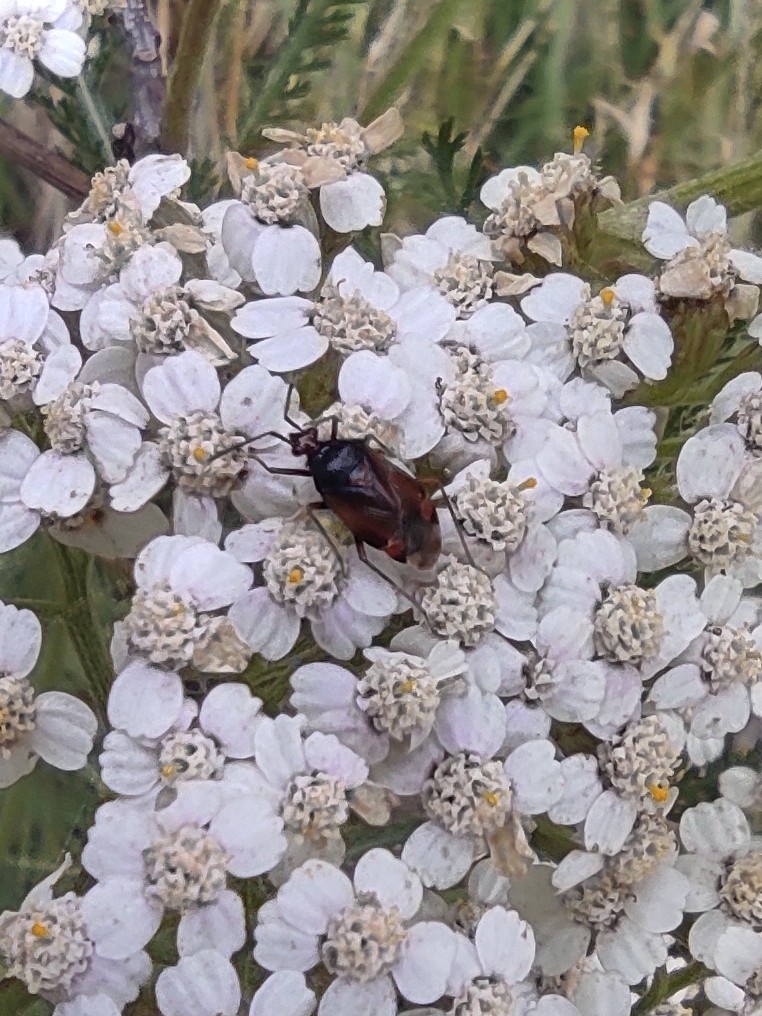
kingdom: Animalia
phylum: Arthropoda
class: Insecta
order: Hemiptera
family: Miridae
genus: Deraeocoris
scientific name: Deraeocoris ruber
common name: Plant bug
